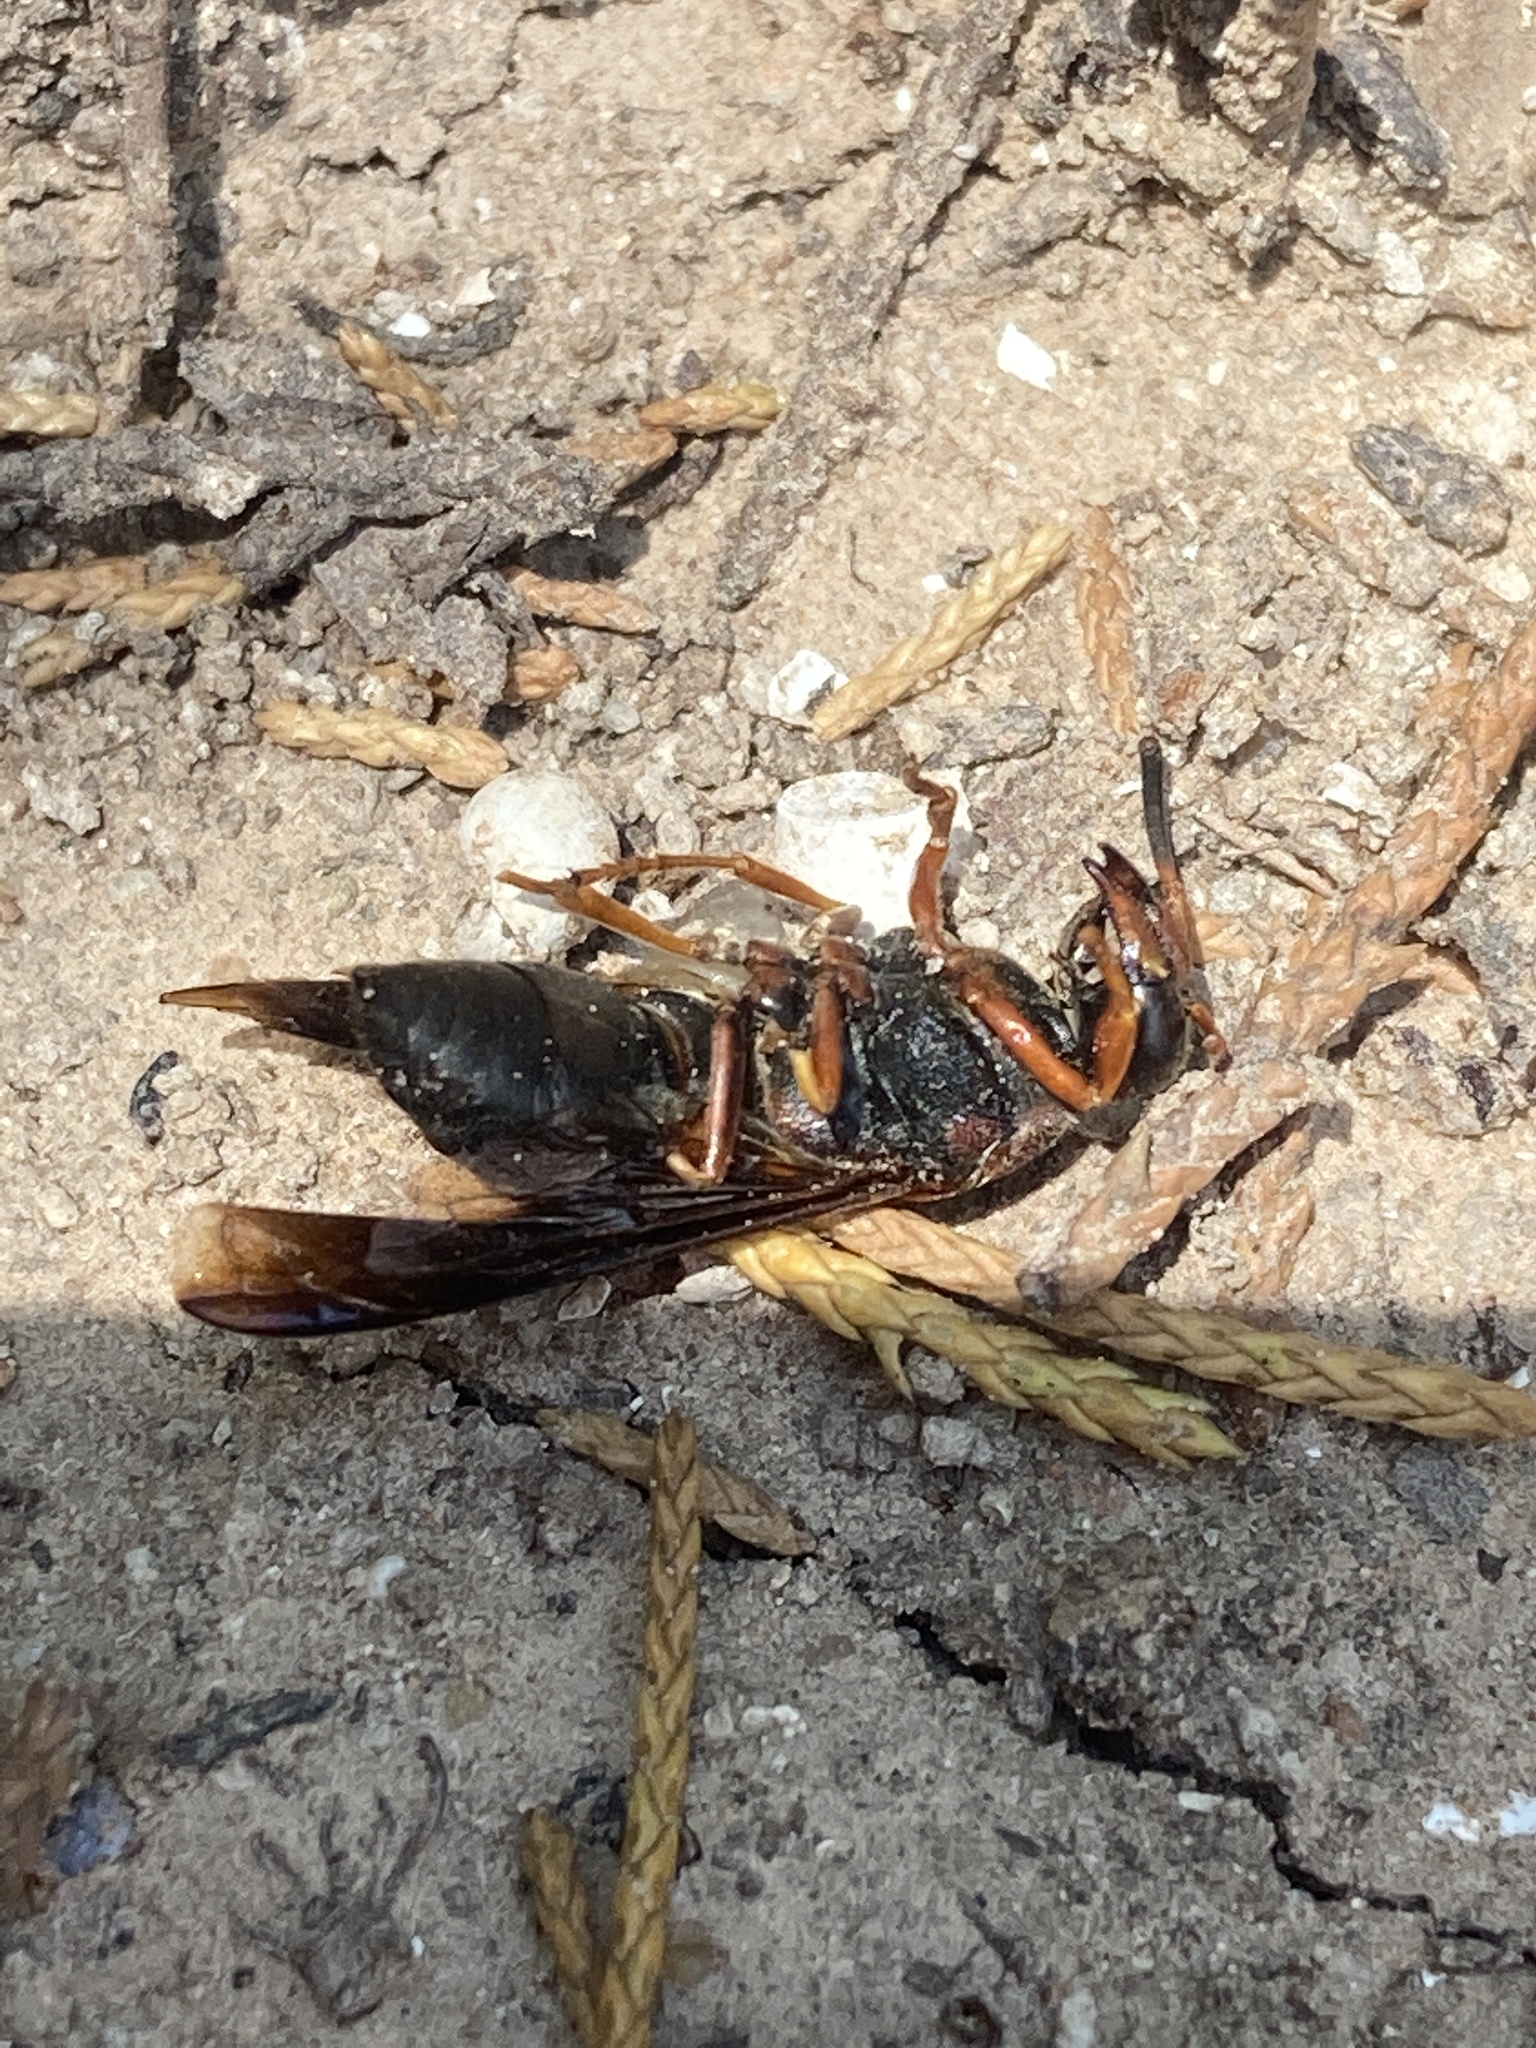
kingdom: Animalia
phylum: Arthropoda
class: Insecta
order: Hymenoptera
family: Eumenidae
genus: Euodynerus
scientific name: Euodynerus crypticus
